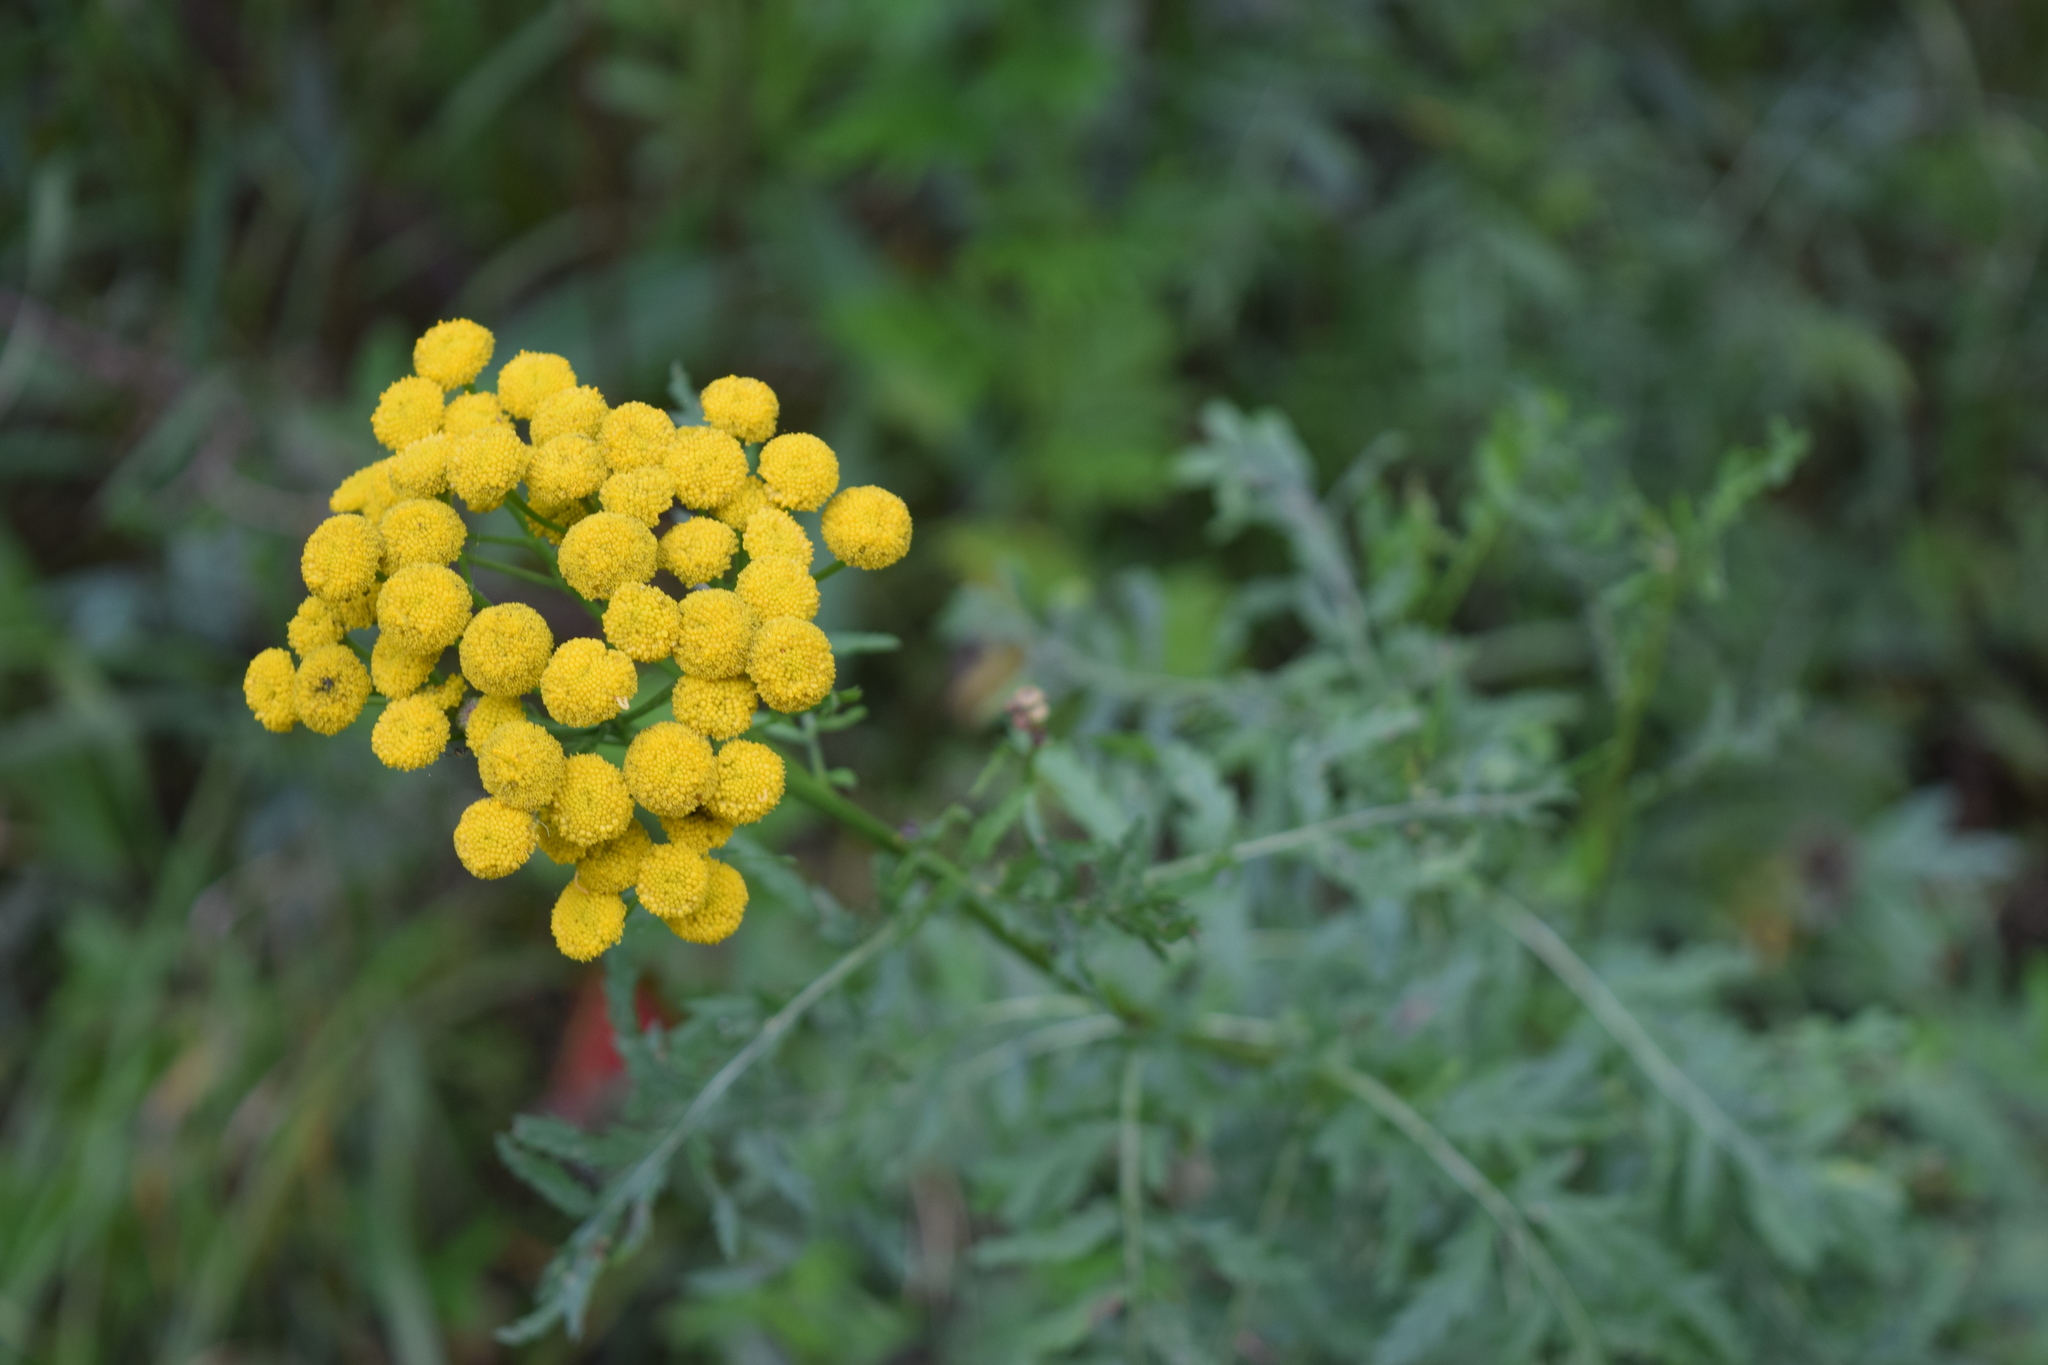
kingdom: Plantae
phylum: Tracheophyta
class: Magnoliopsida
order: Asterales
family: Asteraceae
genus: Tanacetum
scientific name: Tanacetum vulgare
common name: Common tansy
